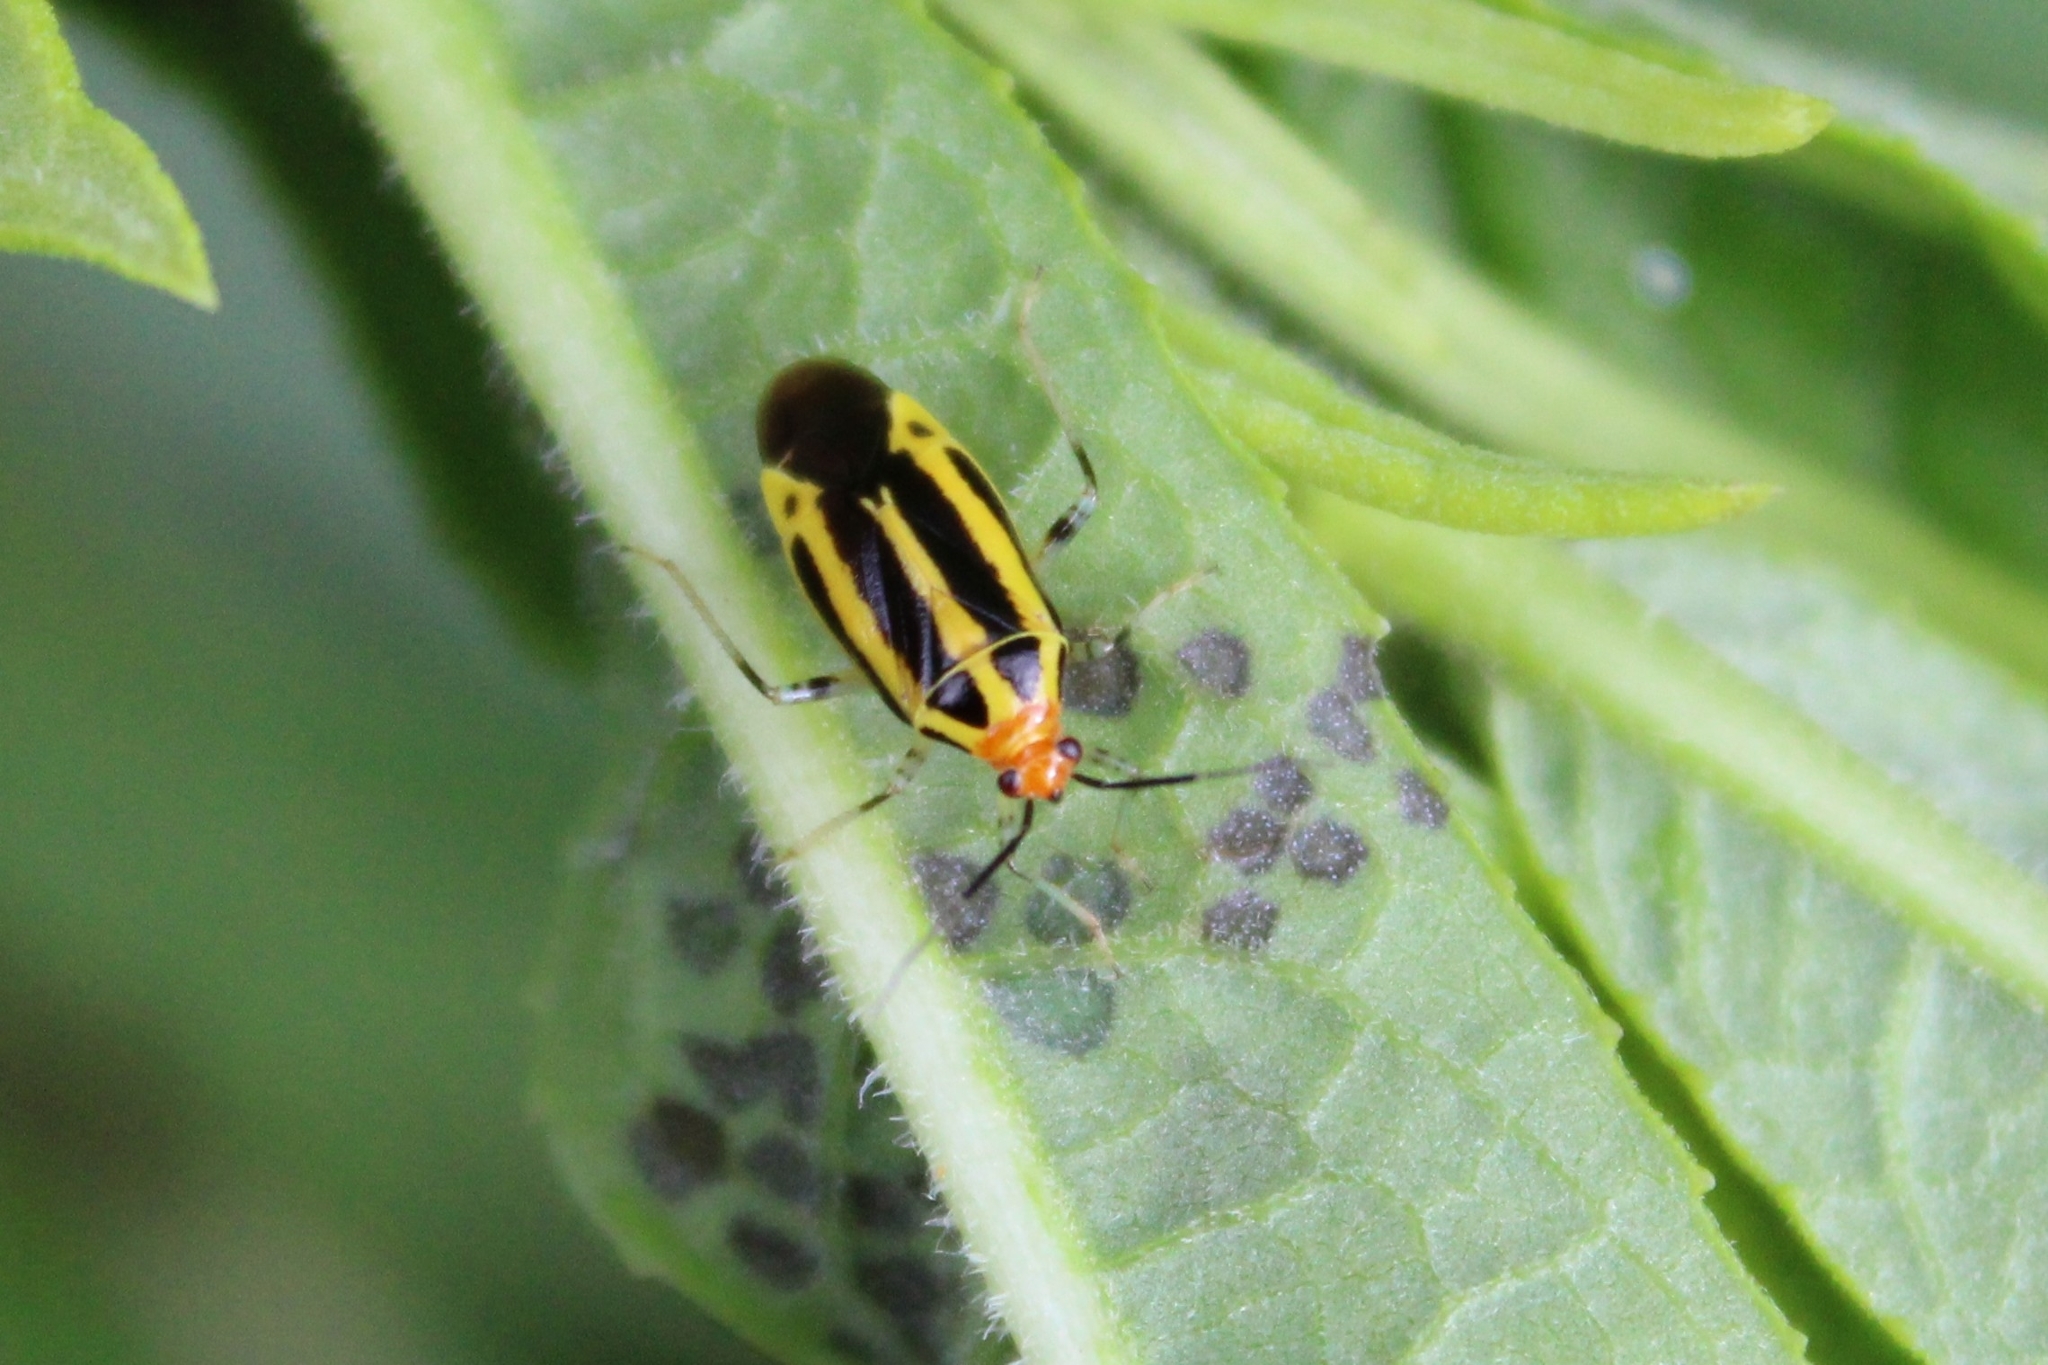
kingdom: Animalia
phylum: Arthropoda
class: Insecta
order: Hemiptera
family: Miridae
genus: Poecilocapsus
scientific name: Poecilocapsus lineatus
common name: Four-lined plant bug
